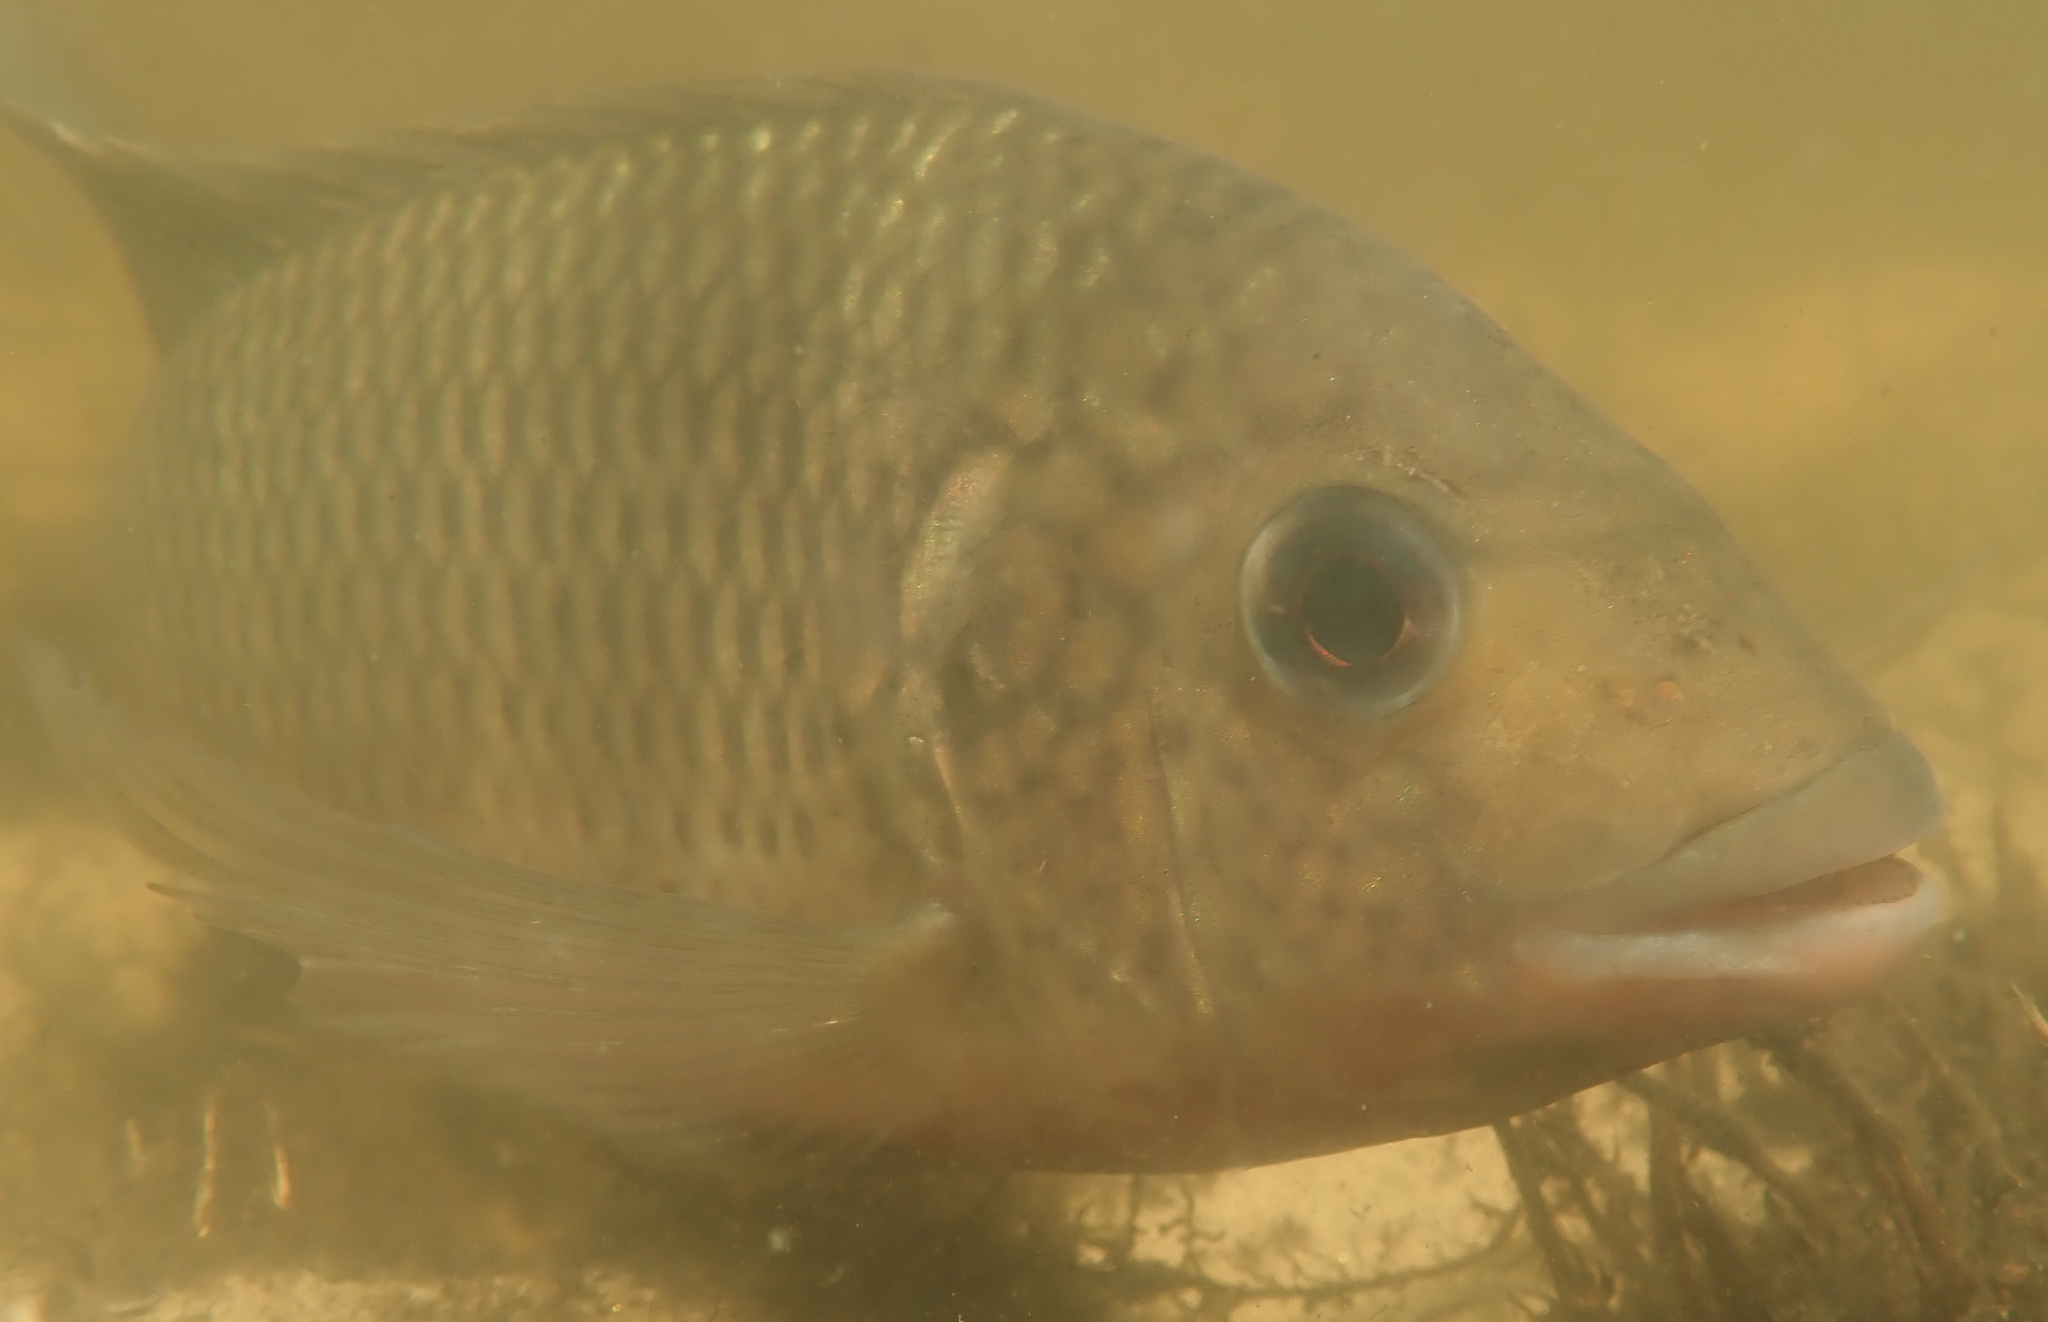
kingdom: Animalia
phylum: Chordata
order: Perciformes
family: Cichlidae
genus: Coptodon
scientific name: Coptodon rendalli
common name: Redbreast tilapia
